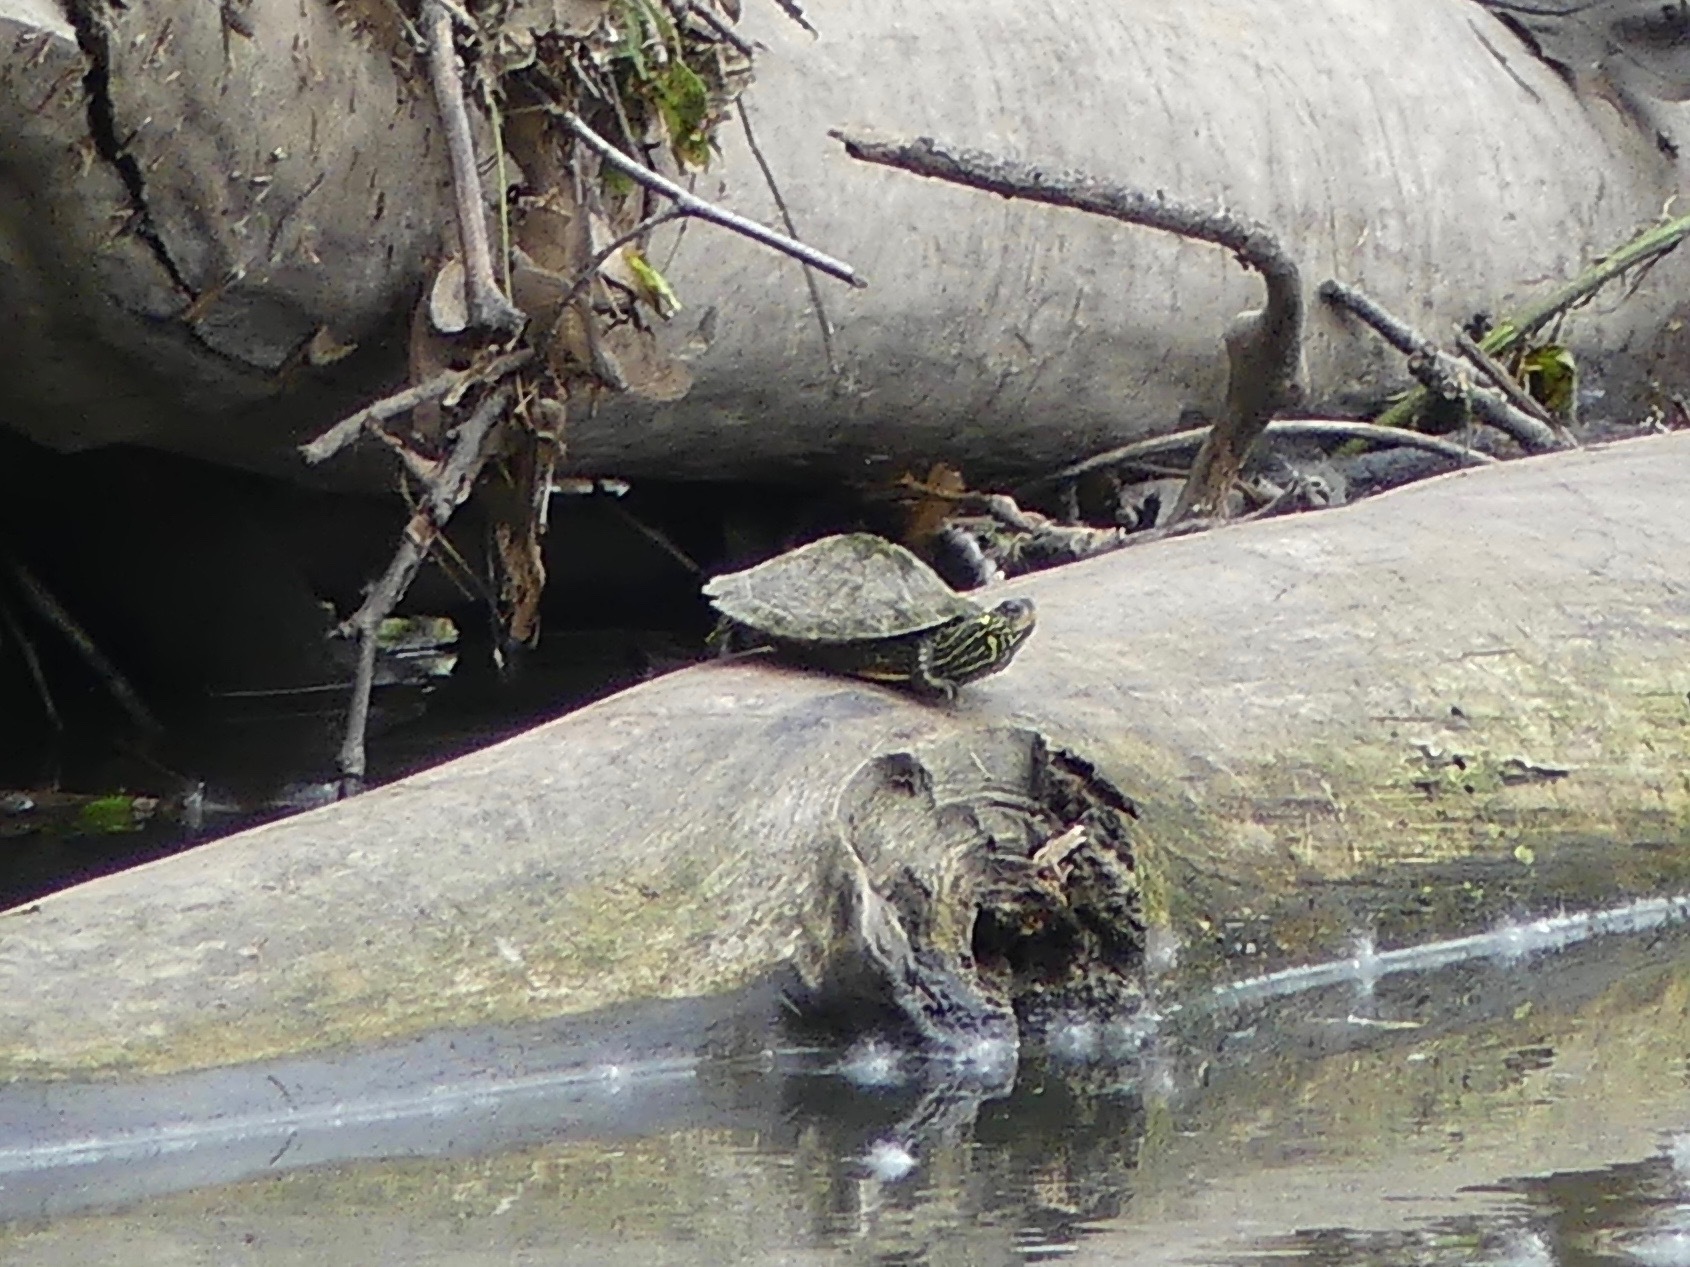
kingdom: Animalia
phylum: Chordata
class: Testudines
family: Emydidae
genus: Graptemys
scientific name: Graptemys geographica
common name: Common map turtle
